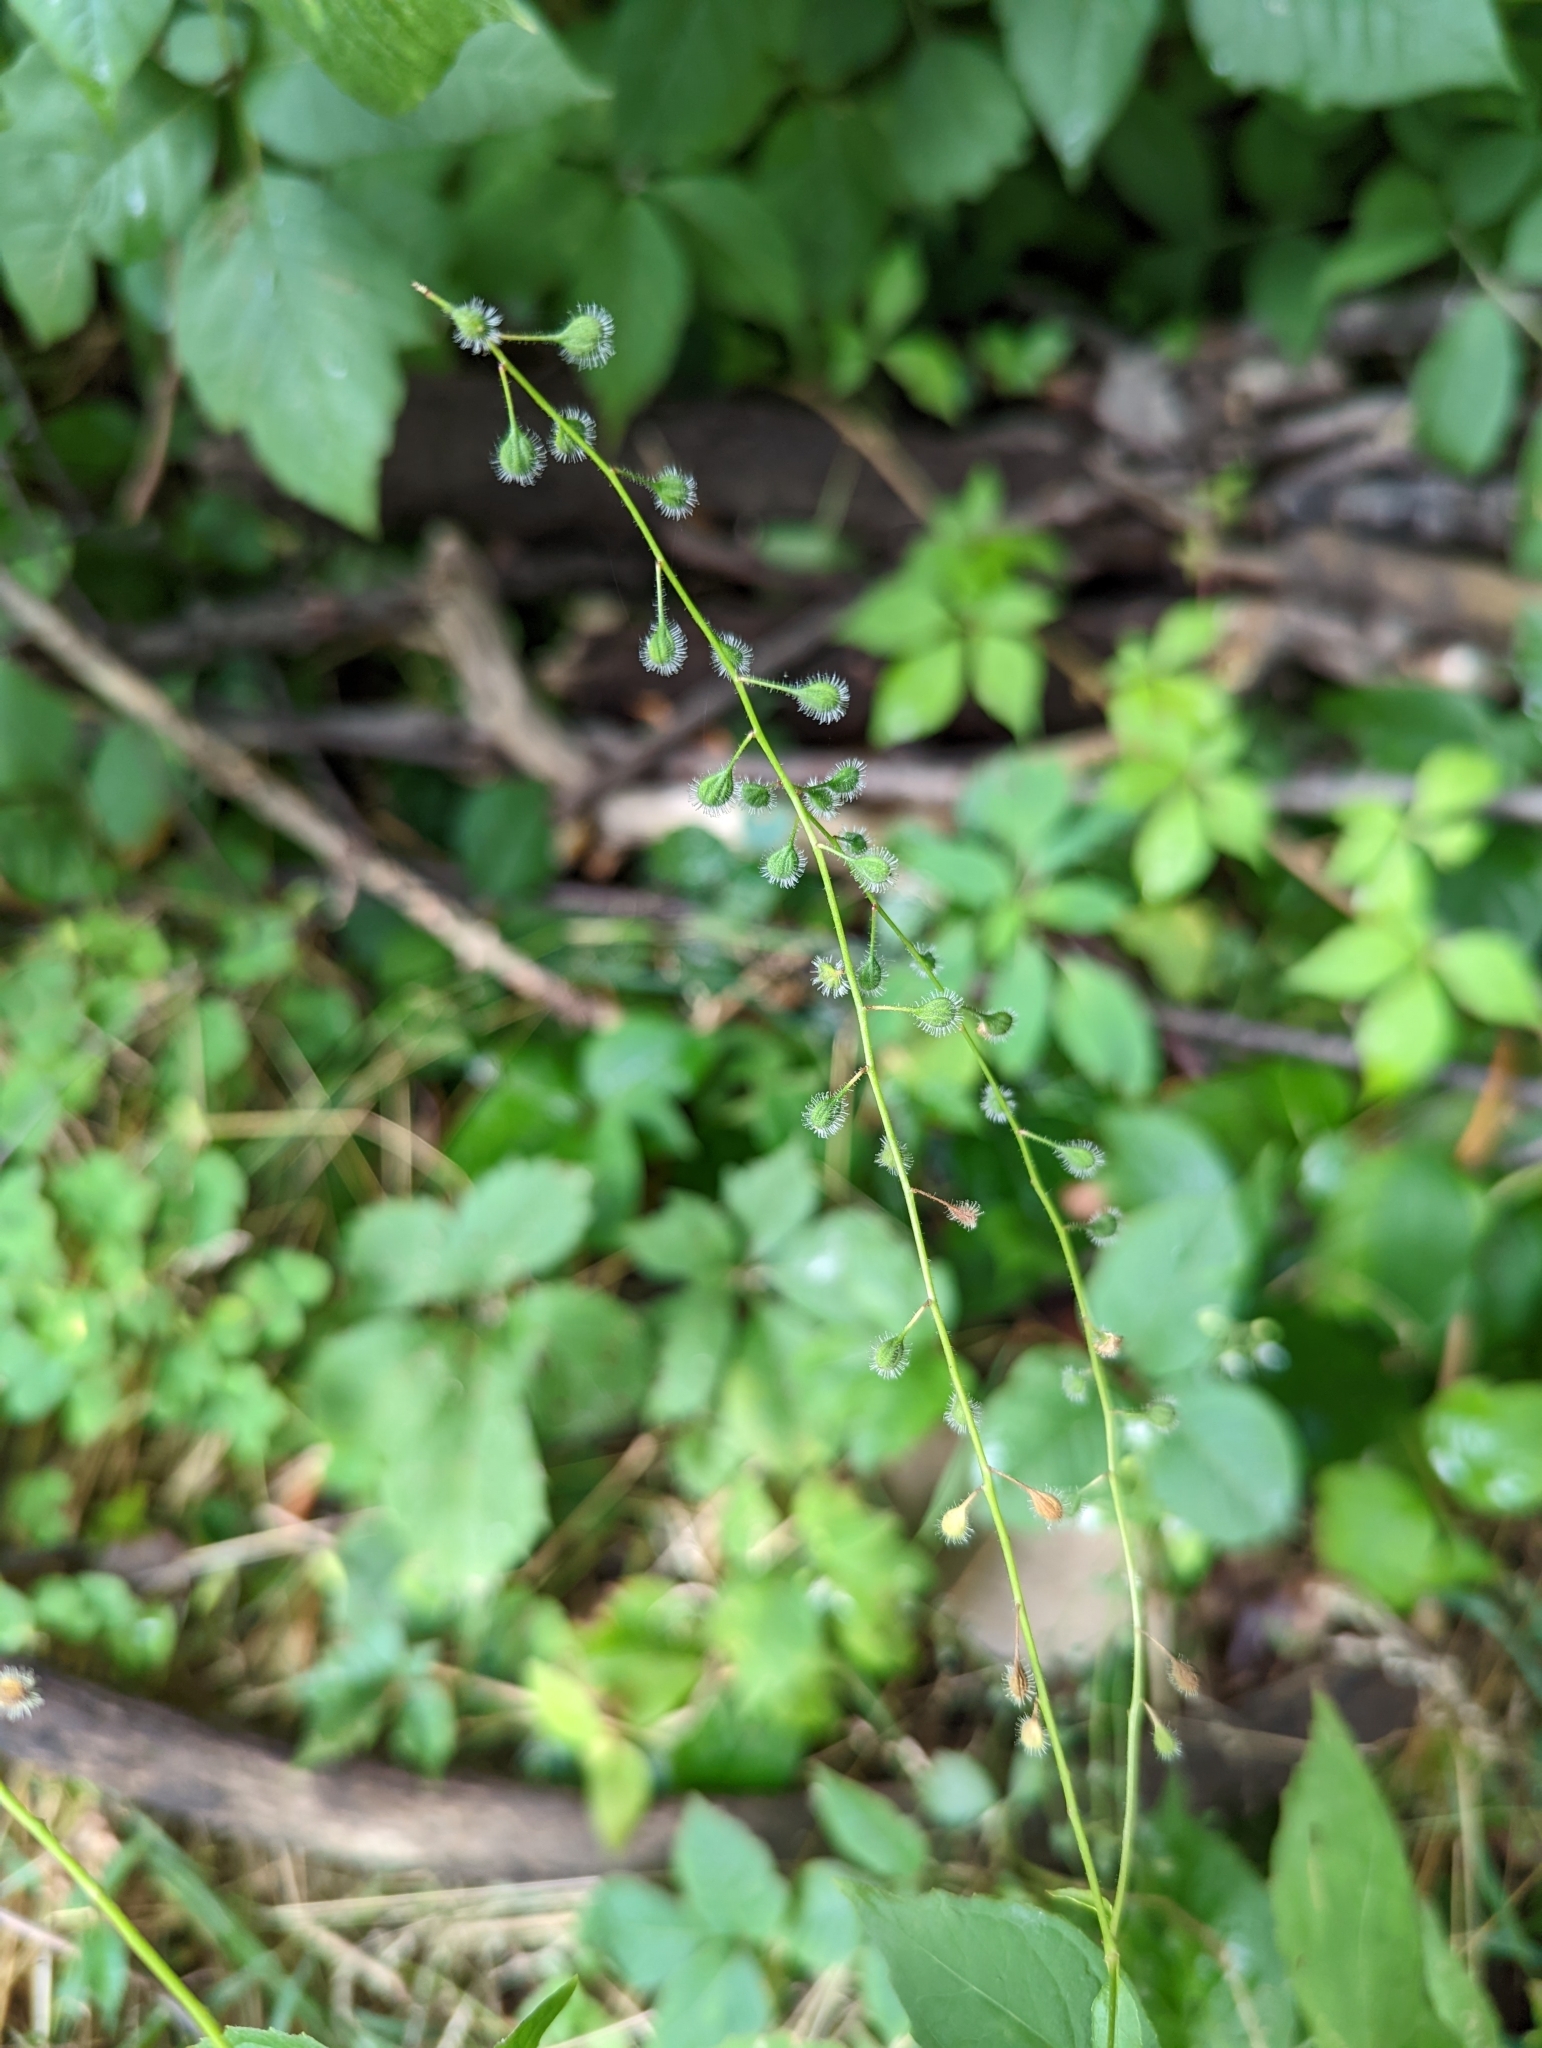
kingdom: Plantae
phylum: Tracheophyta
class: Magnoliopsida
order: Myrtales
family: Onagraceae
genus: Circaea
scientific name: Circaea canadensis
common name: Broad-leaved enchanter's nightshade
